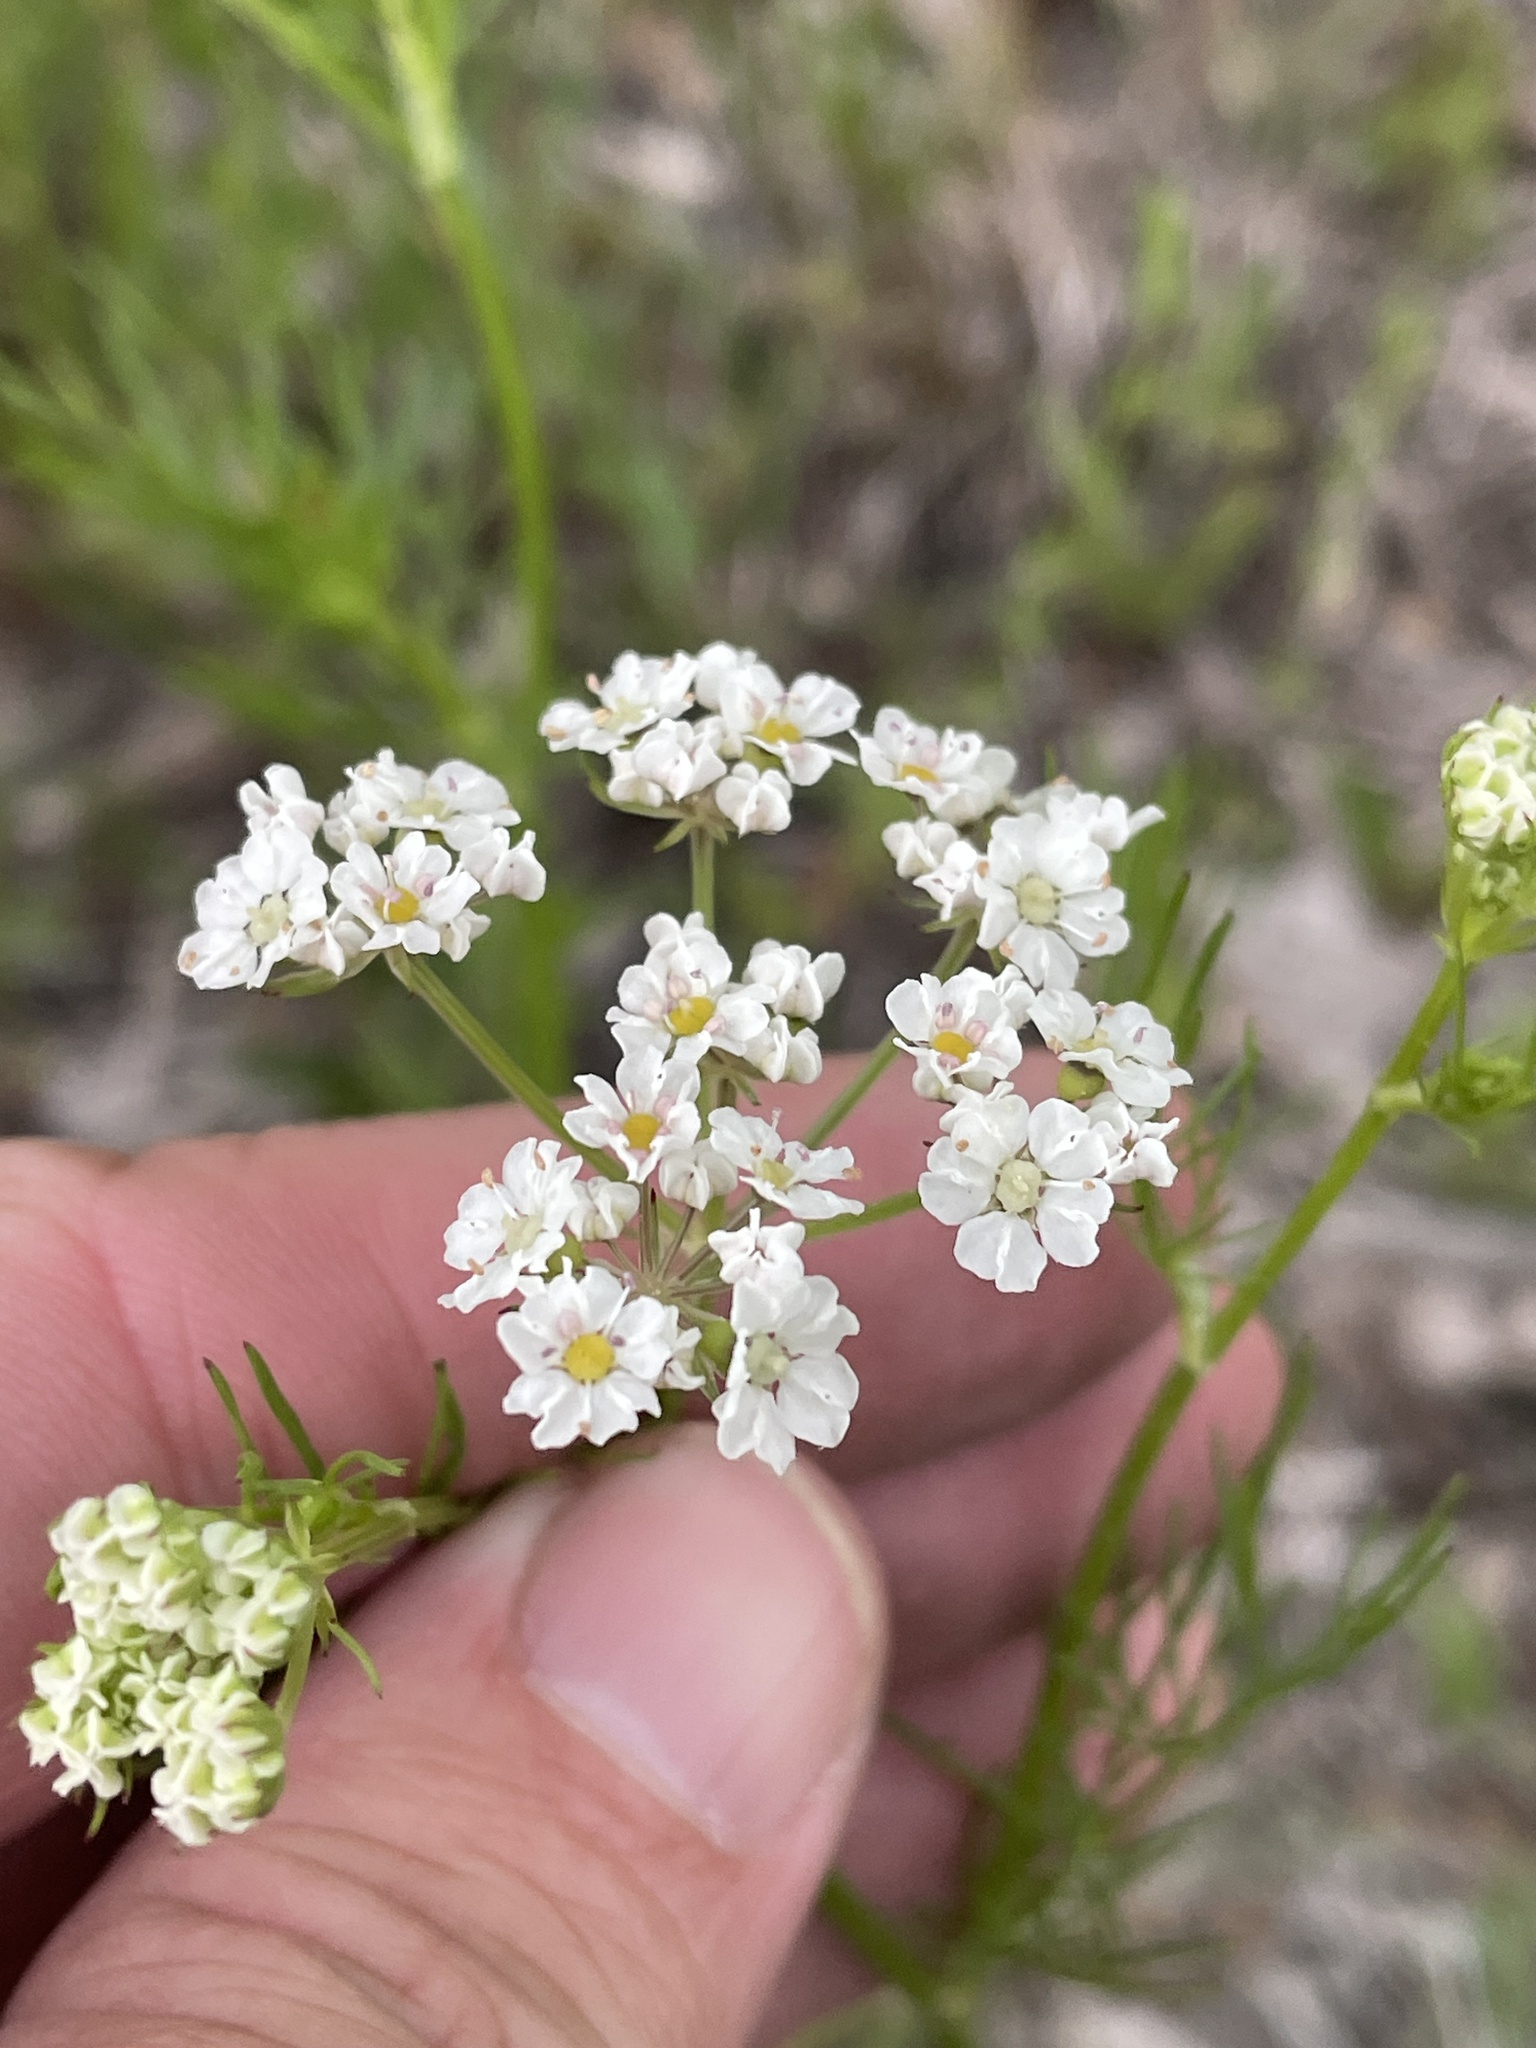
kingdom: Plantae
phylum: Tracheophyta
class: Magnoliopsida
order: Apiales
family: Apiaceae
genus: Atrema
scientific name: Atrema americanum
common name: Prairie-bishop
